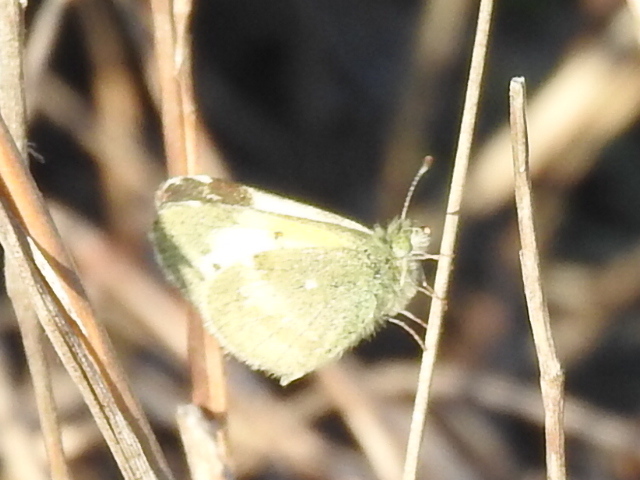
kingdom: Animalia
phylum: Arthropoda
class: Insecta
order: Lepidoptera
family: Pieridae
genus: Nathalis
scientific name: Nathalis iole
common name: Dainty sulphur
